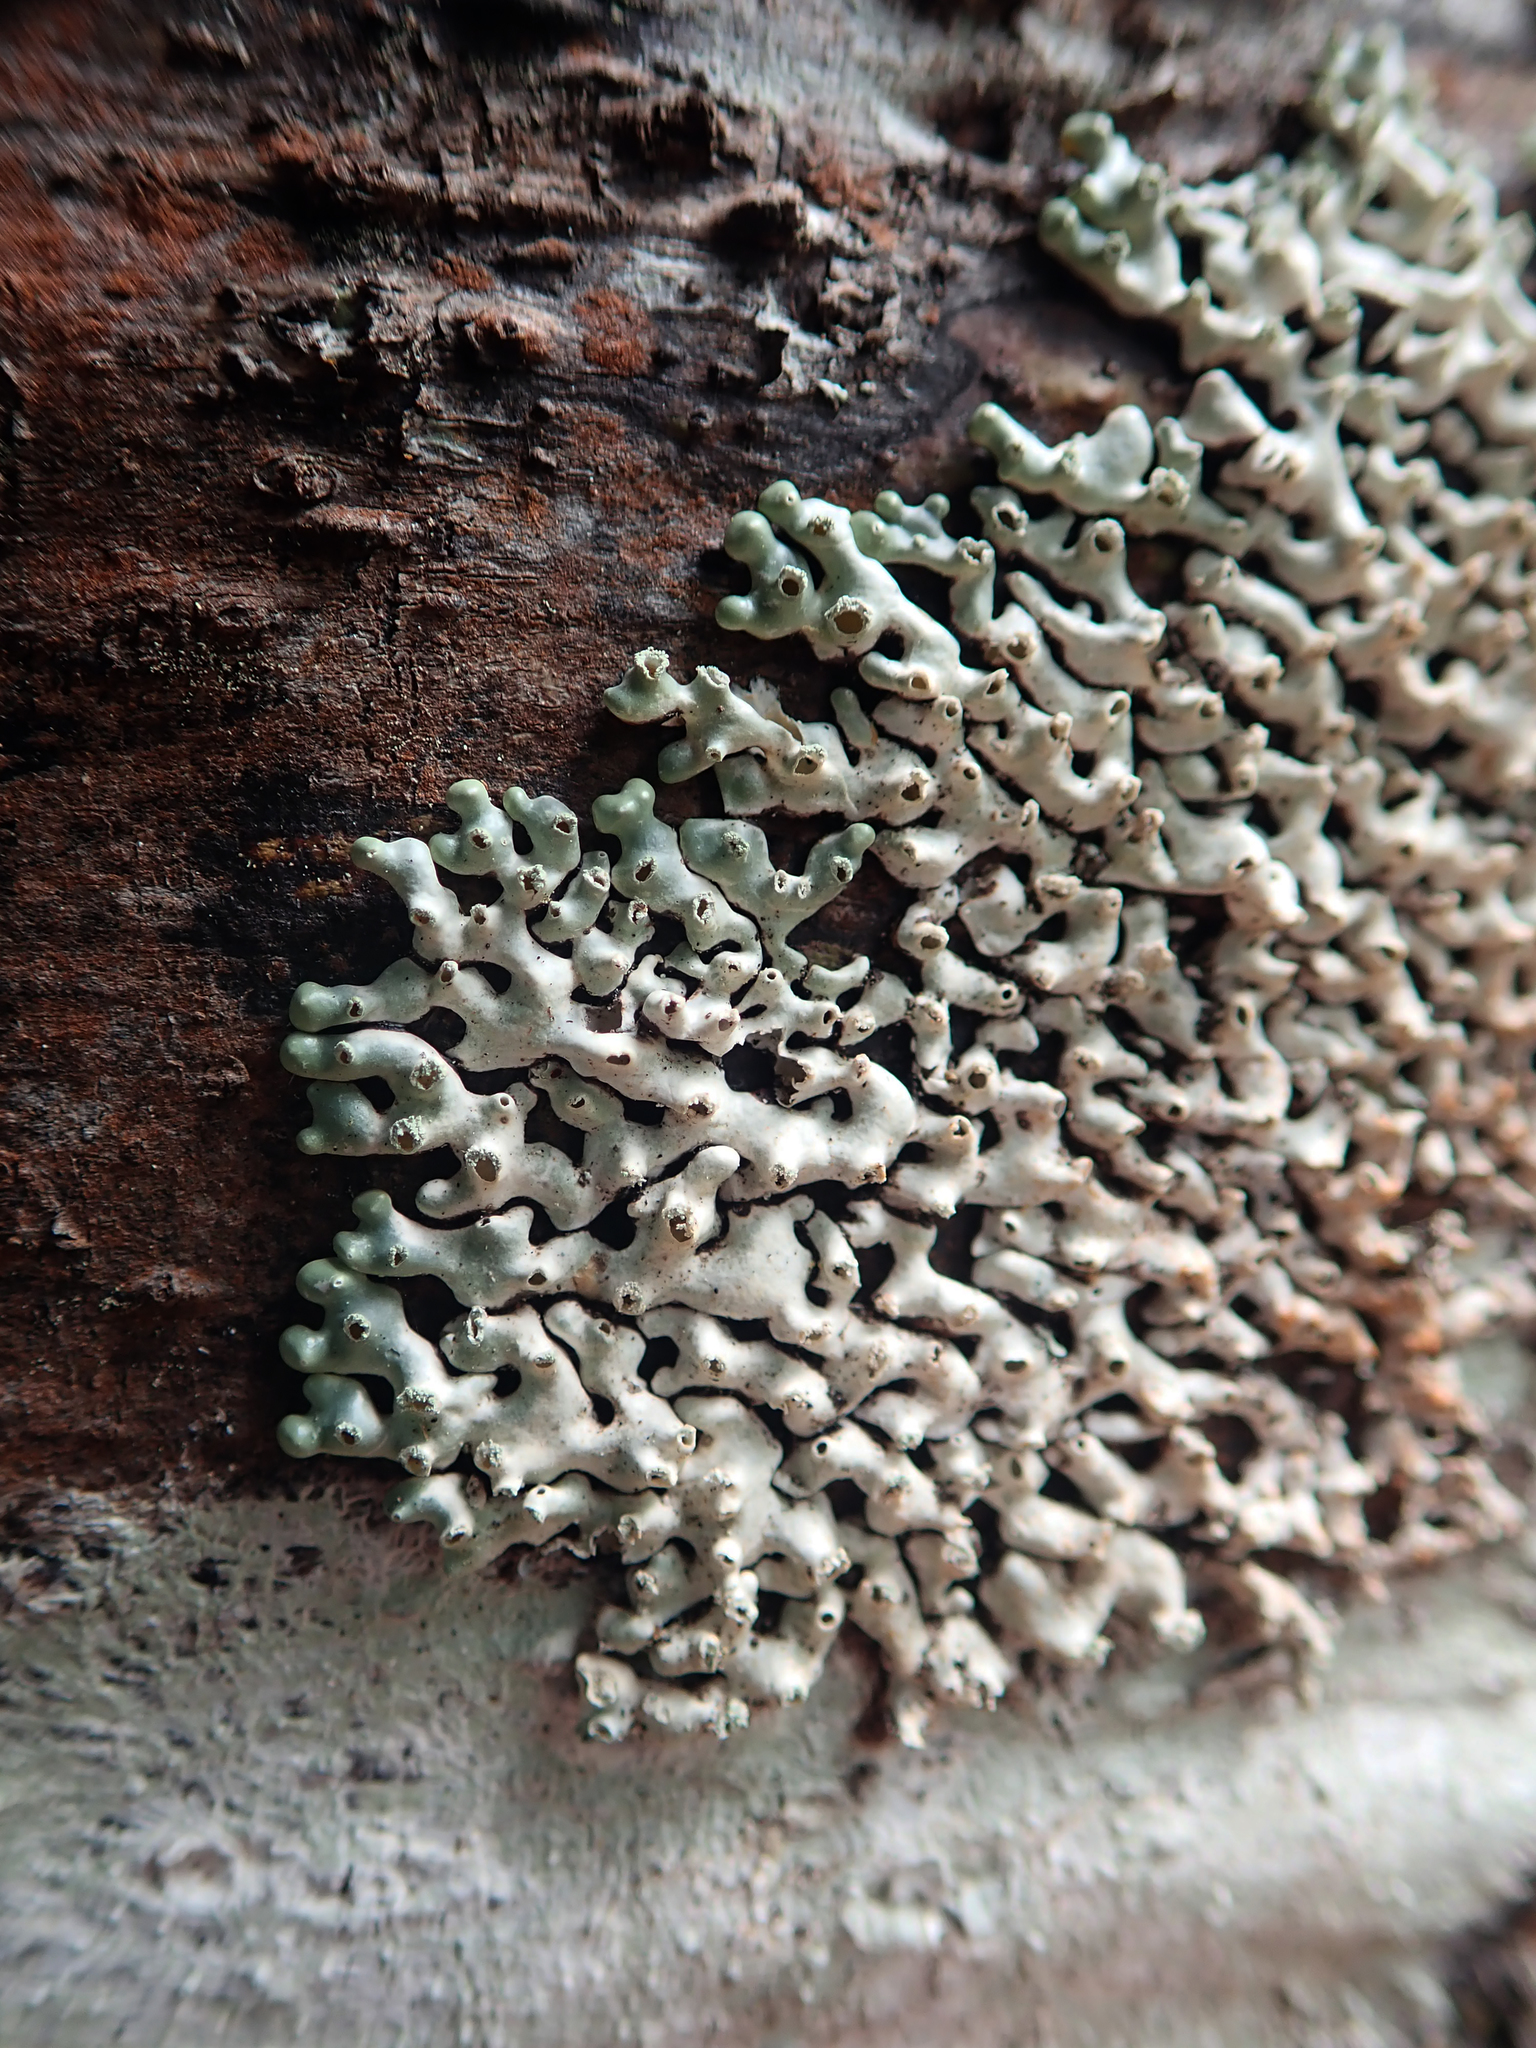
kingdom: Fungi
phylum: Ascomycota
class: Lecanoromycetes
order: Lecanorales
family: Parmeliaceae
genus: Menegazzia
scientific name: Menegazzia neozelandica
